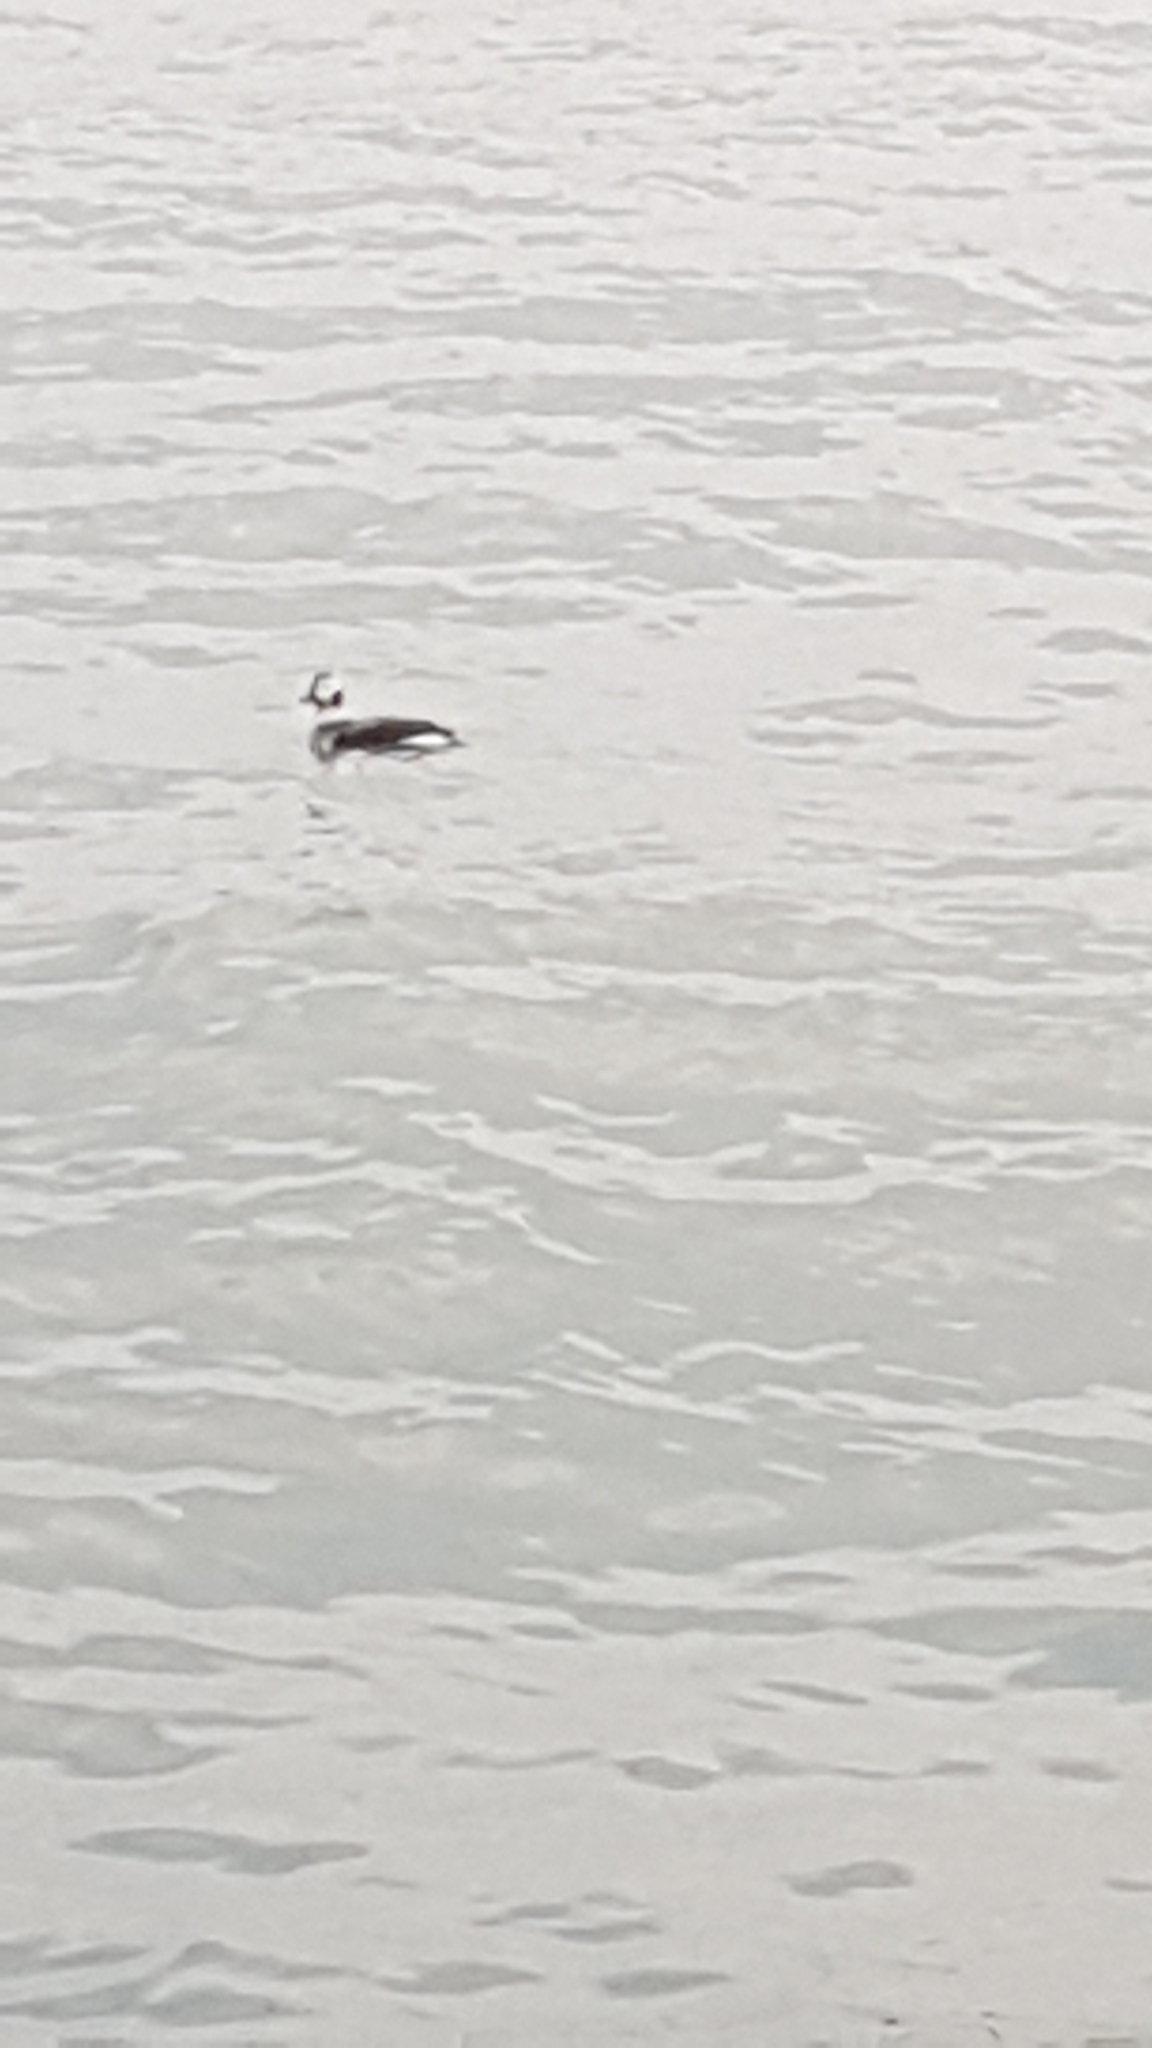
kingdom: Animalia
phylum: Chordata
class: Aves
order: Anseriformes
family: Anatidae
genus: Clangula
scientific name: Clangula hyemalis
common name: Long-tailed duck
